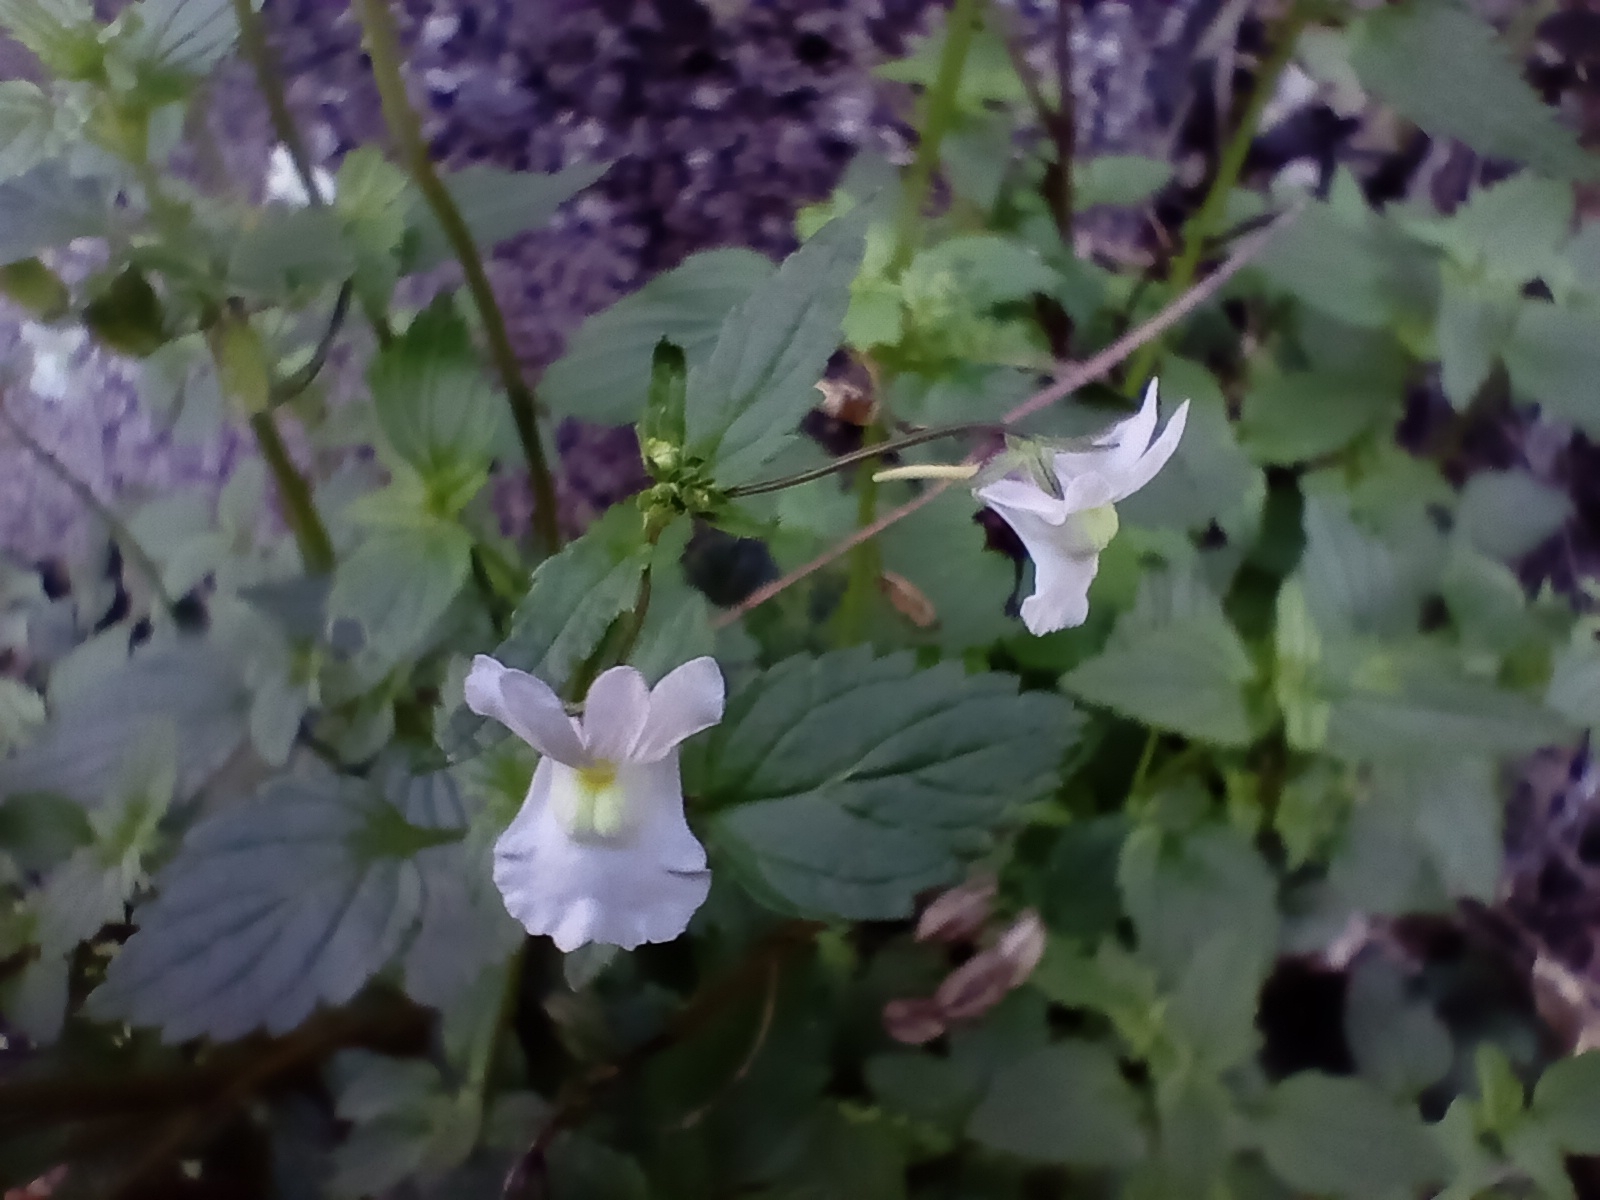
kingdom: Plantae
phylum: Tracheophyta
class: Magnoliopsida
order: Lamiales
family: Scrophulariaceae
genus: Nemesia
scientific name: Nemesia floribunda
